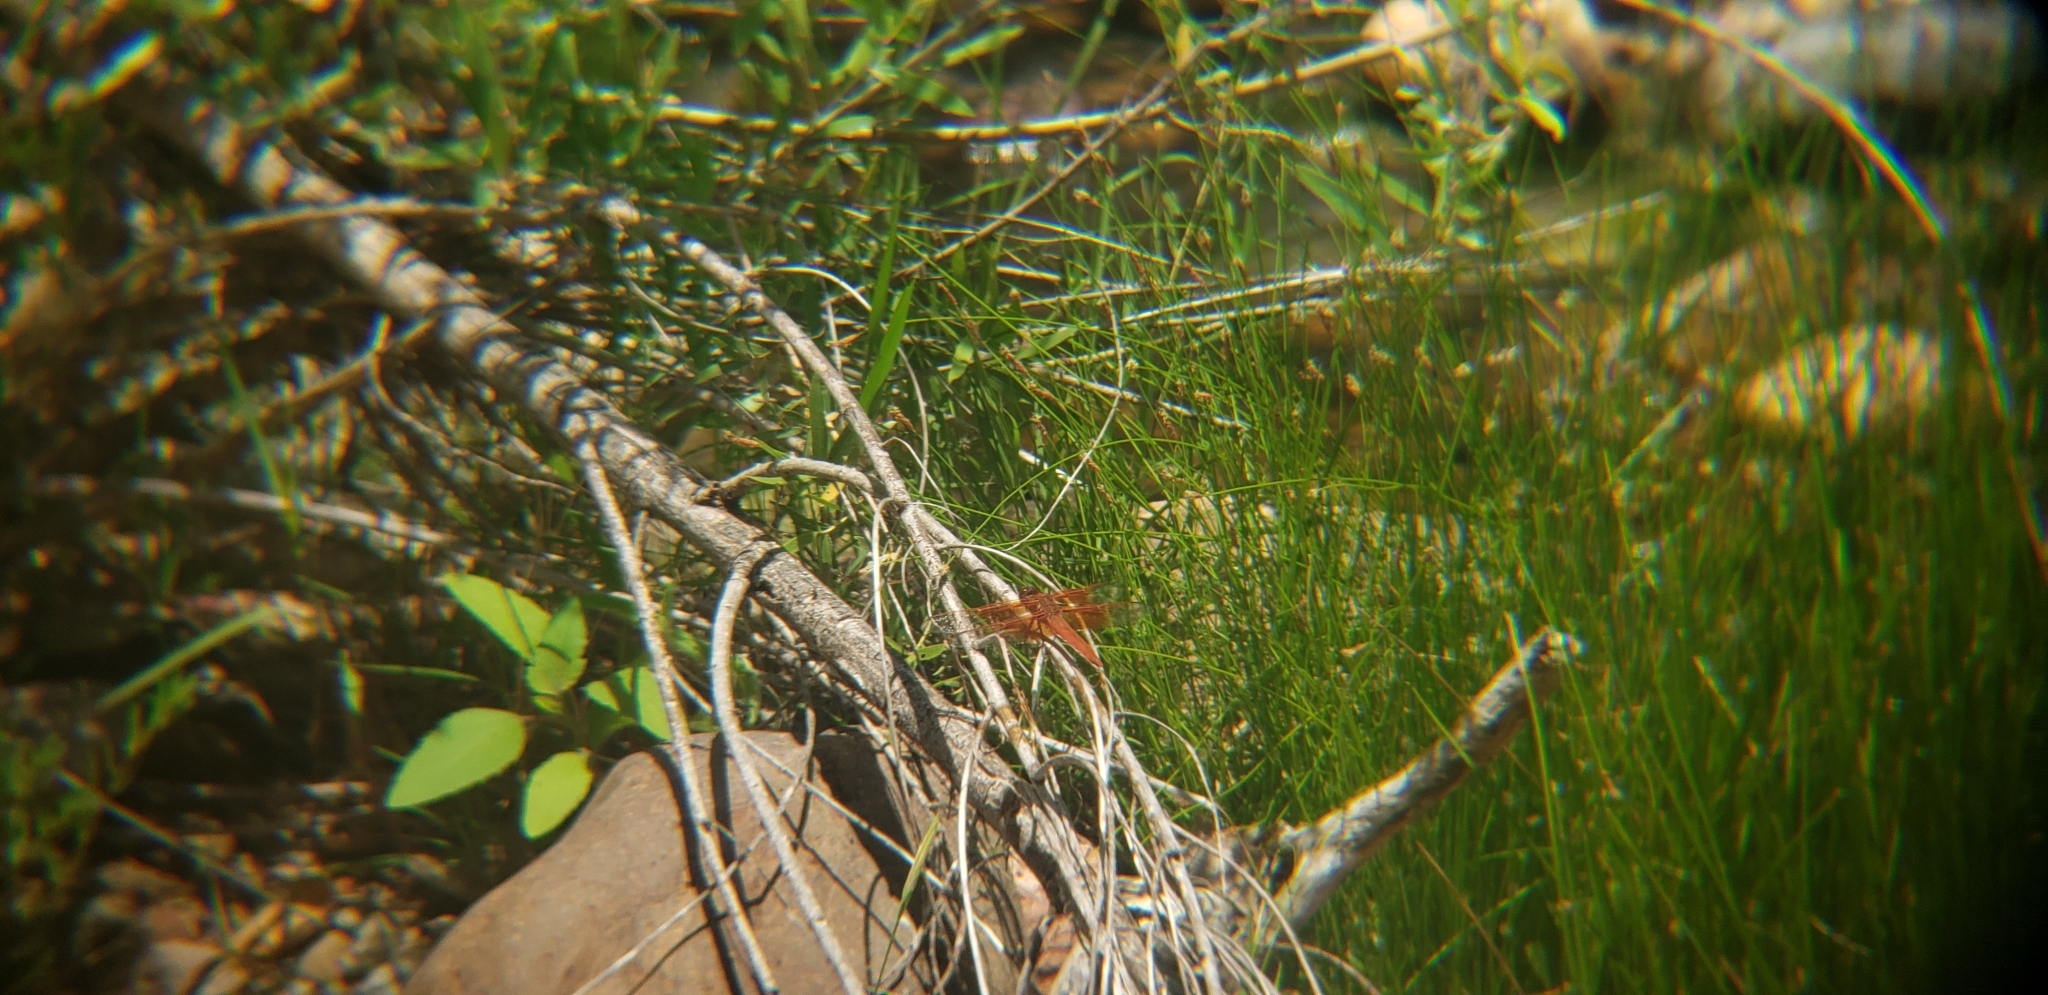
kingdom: Animalia
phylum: Arthropoda
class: Insecta
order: Odonata
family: Libellulidae
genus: Libellula
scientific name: Libellula saturata
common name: Flame skimmer
